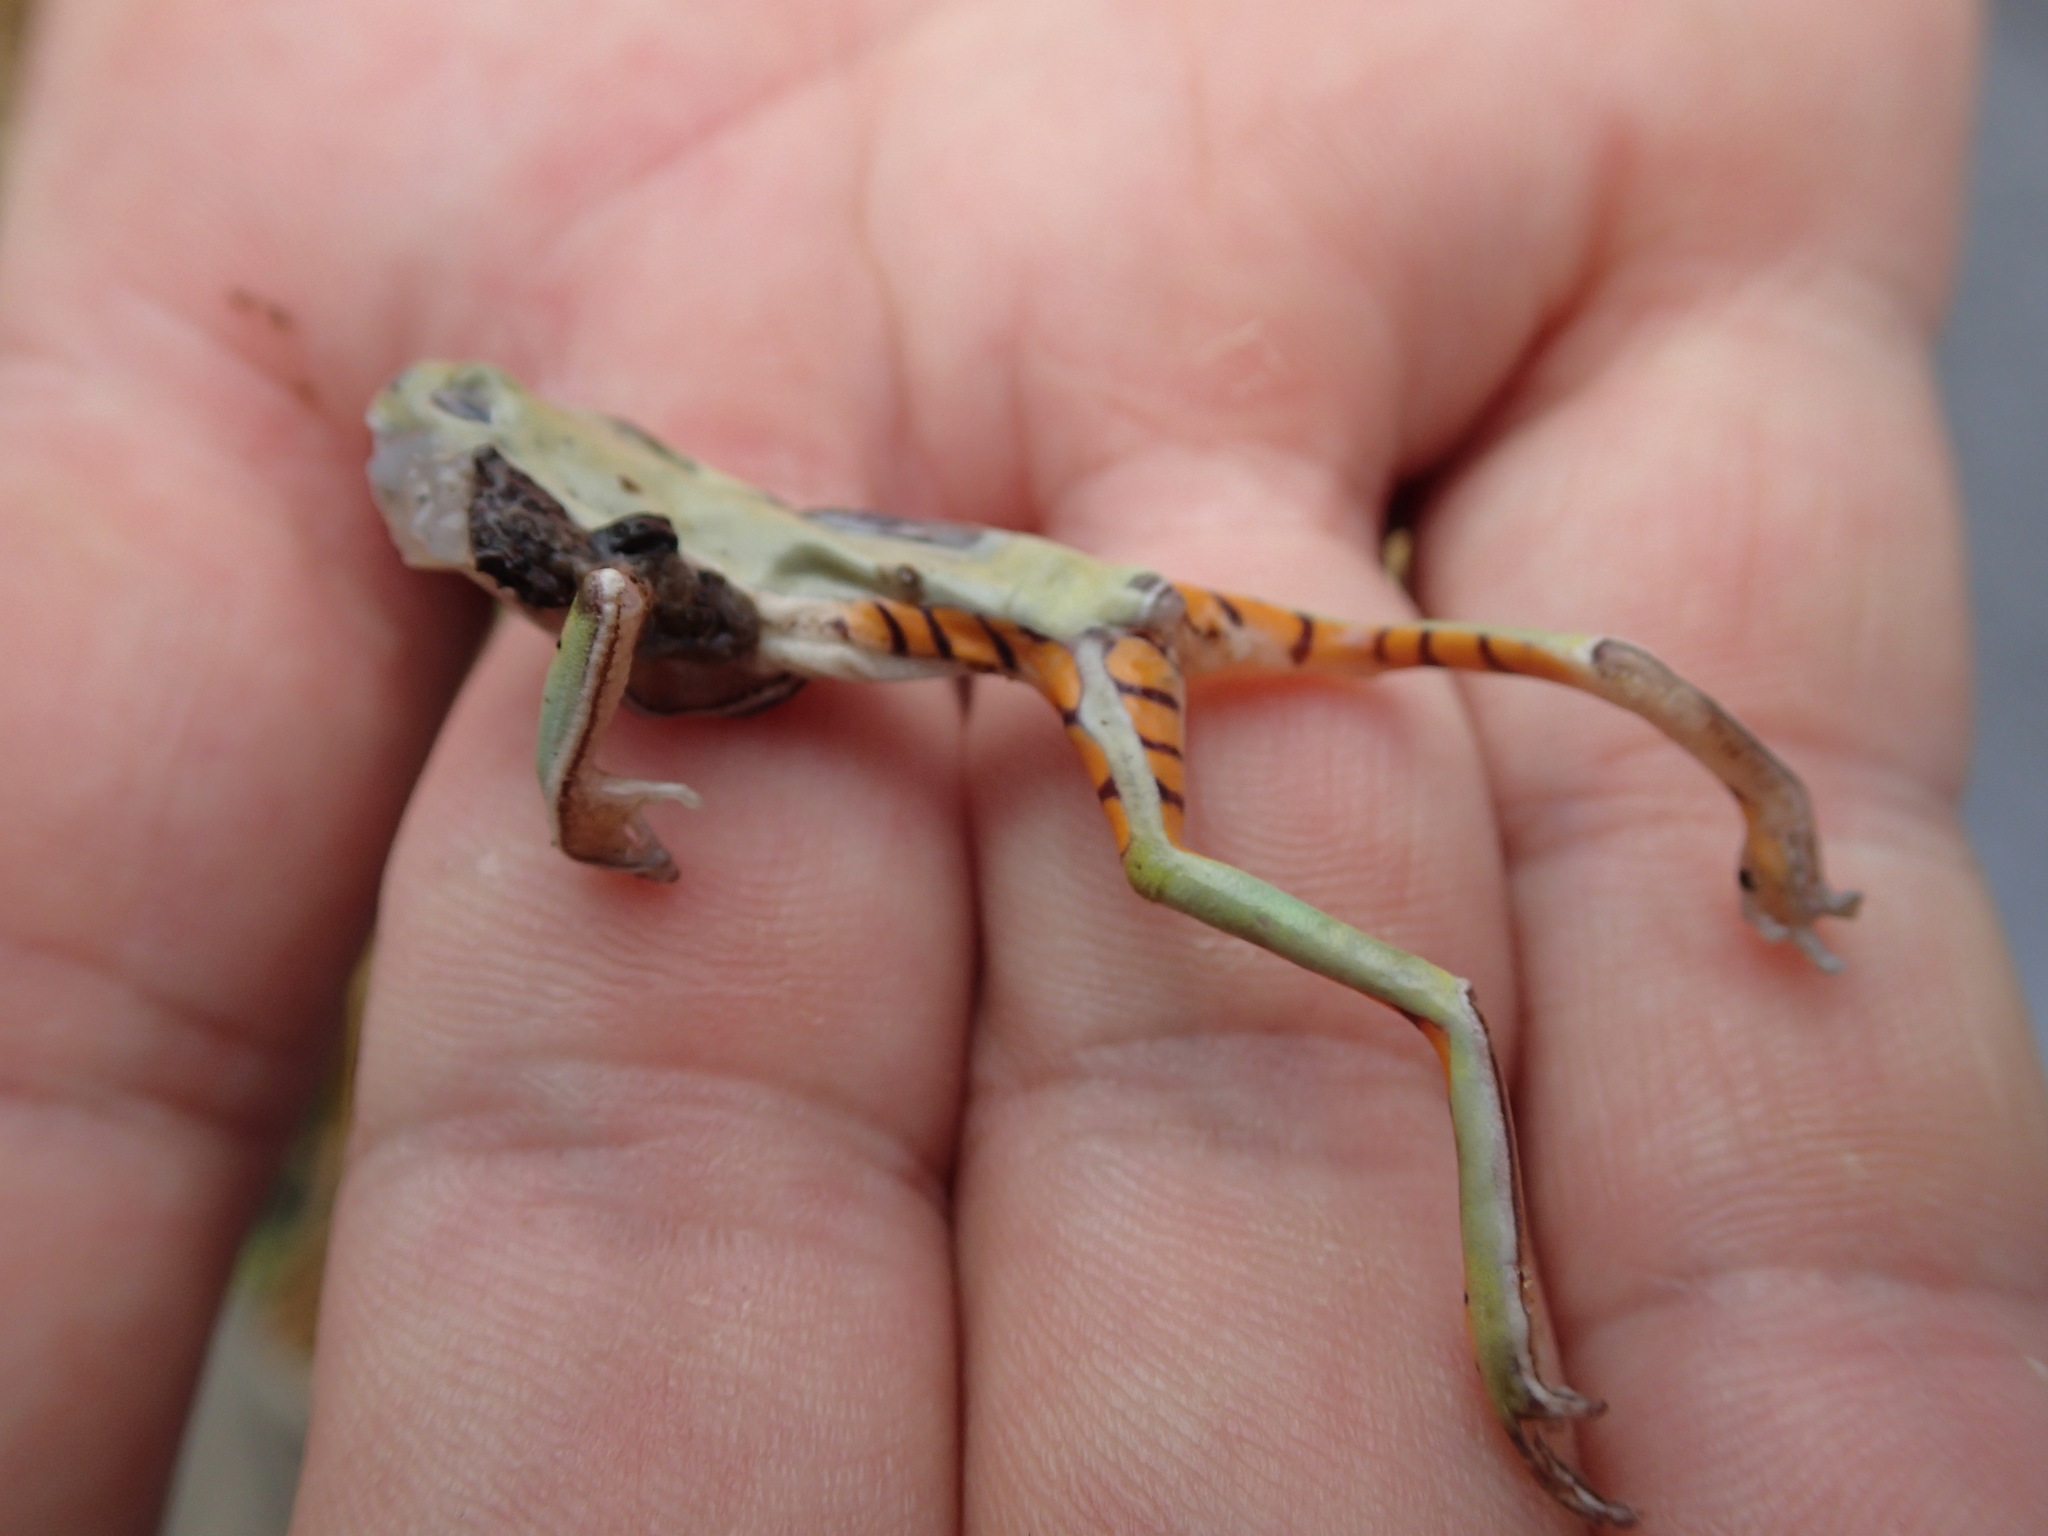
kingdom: Animalia
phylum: Chordata
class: Amphibia
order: Anura
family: Phyllomedusidae
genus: Pithecopus
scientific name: Pithecopus azureus
